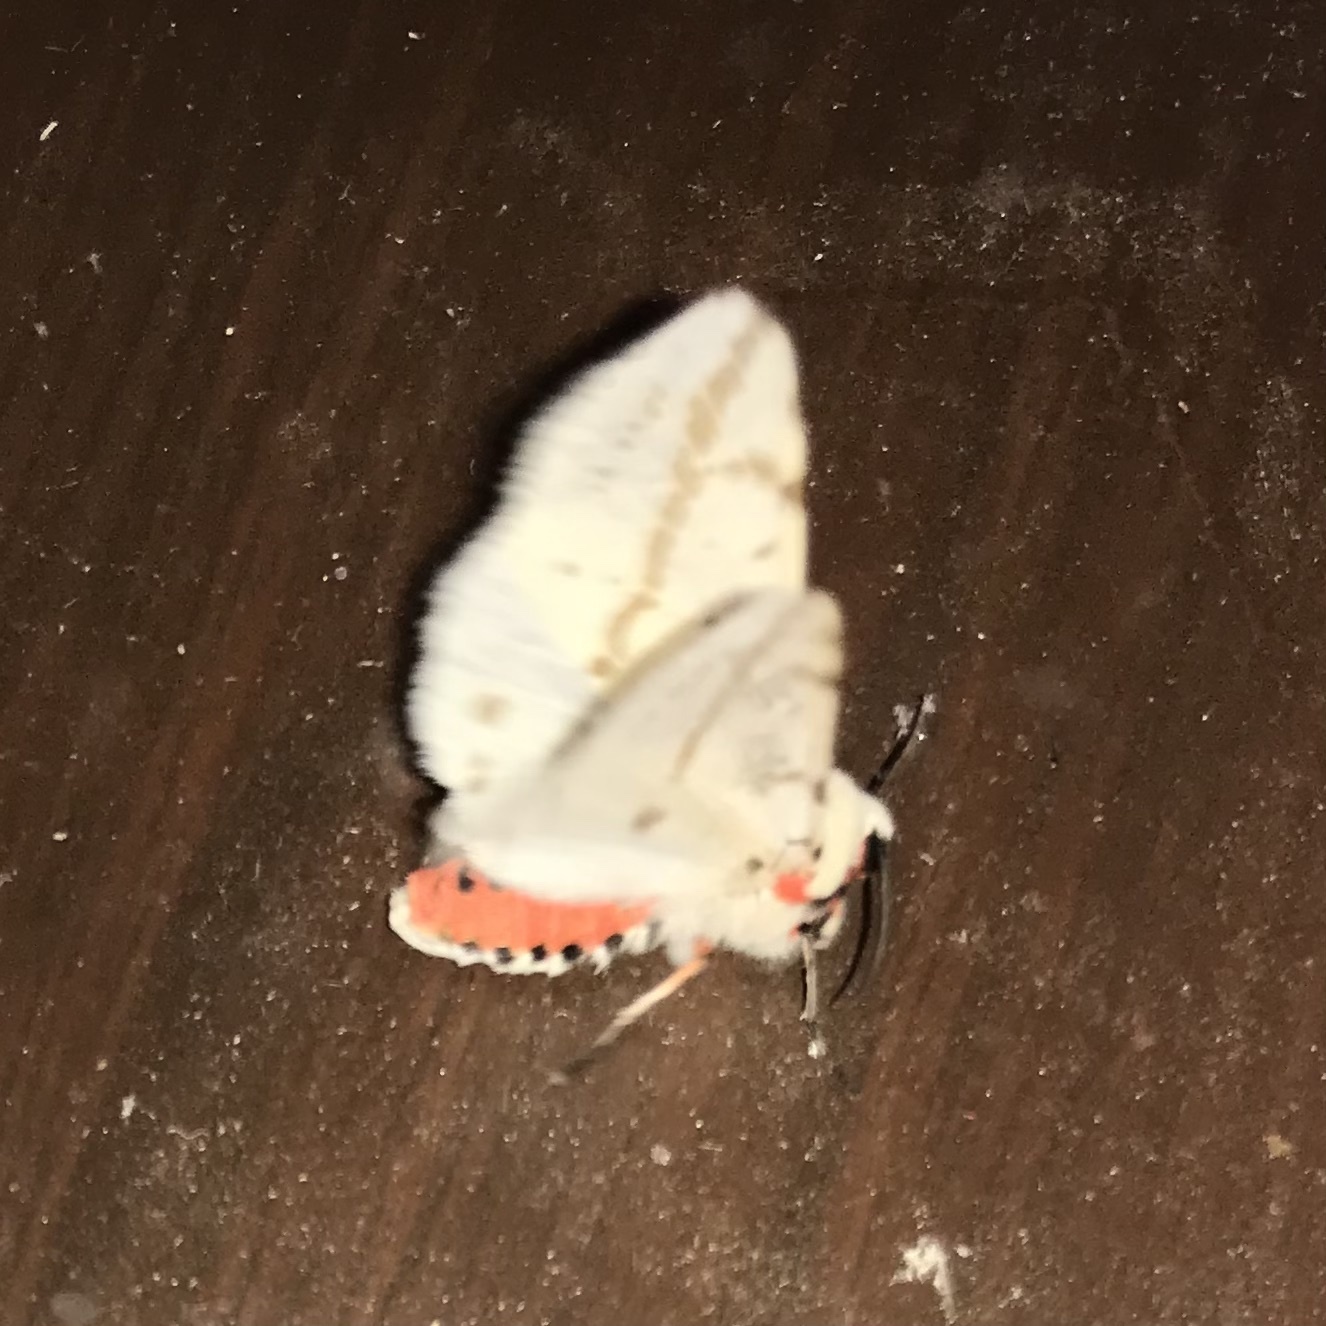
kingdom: Animalia
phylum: Arthropoda
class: Insecta
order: Lepidoptera
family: Erebidae
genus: Ardices
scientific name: Ardices canescens
